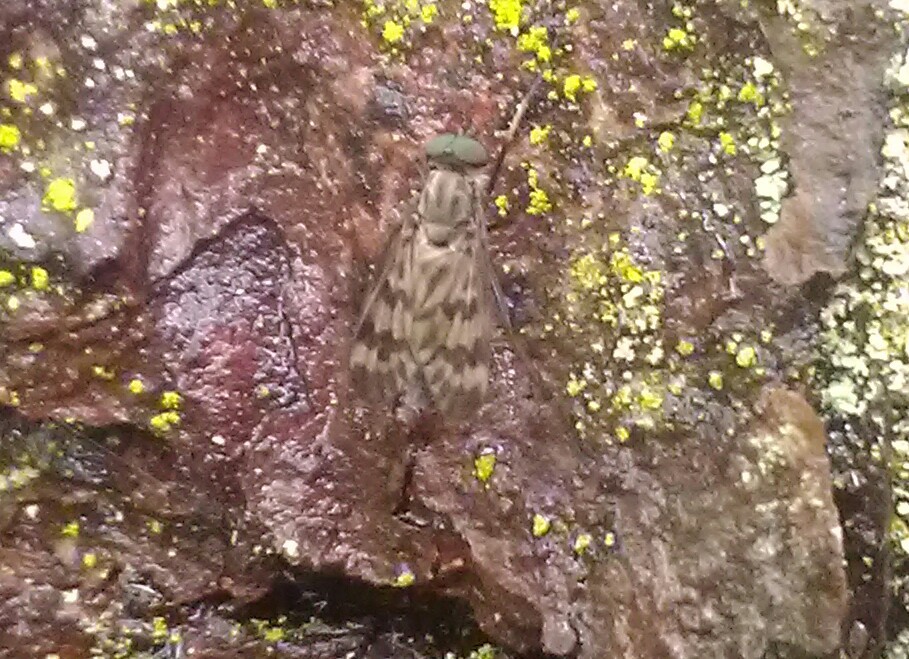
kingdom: Animalia
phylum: Arthropoda
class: Insecta
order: Diptera
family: Rhagionidae
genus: Rhagio
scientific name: Rhagio mystaceus
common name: Common snipe fly
